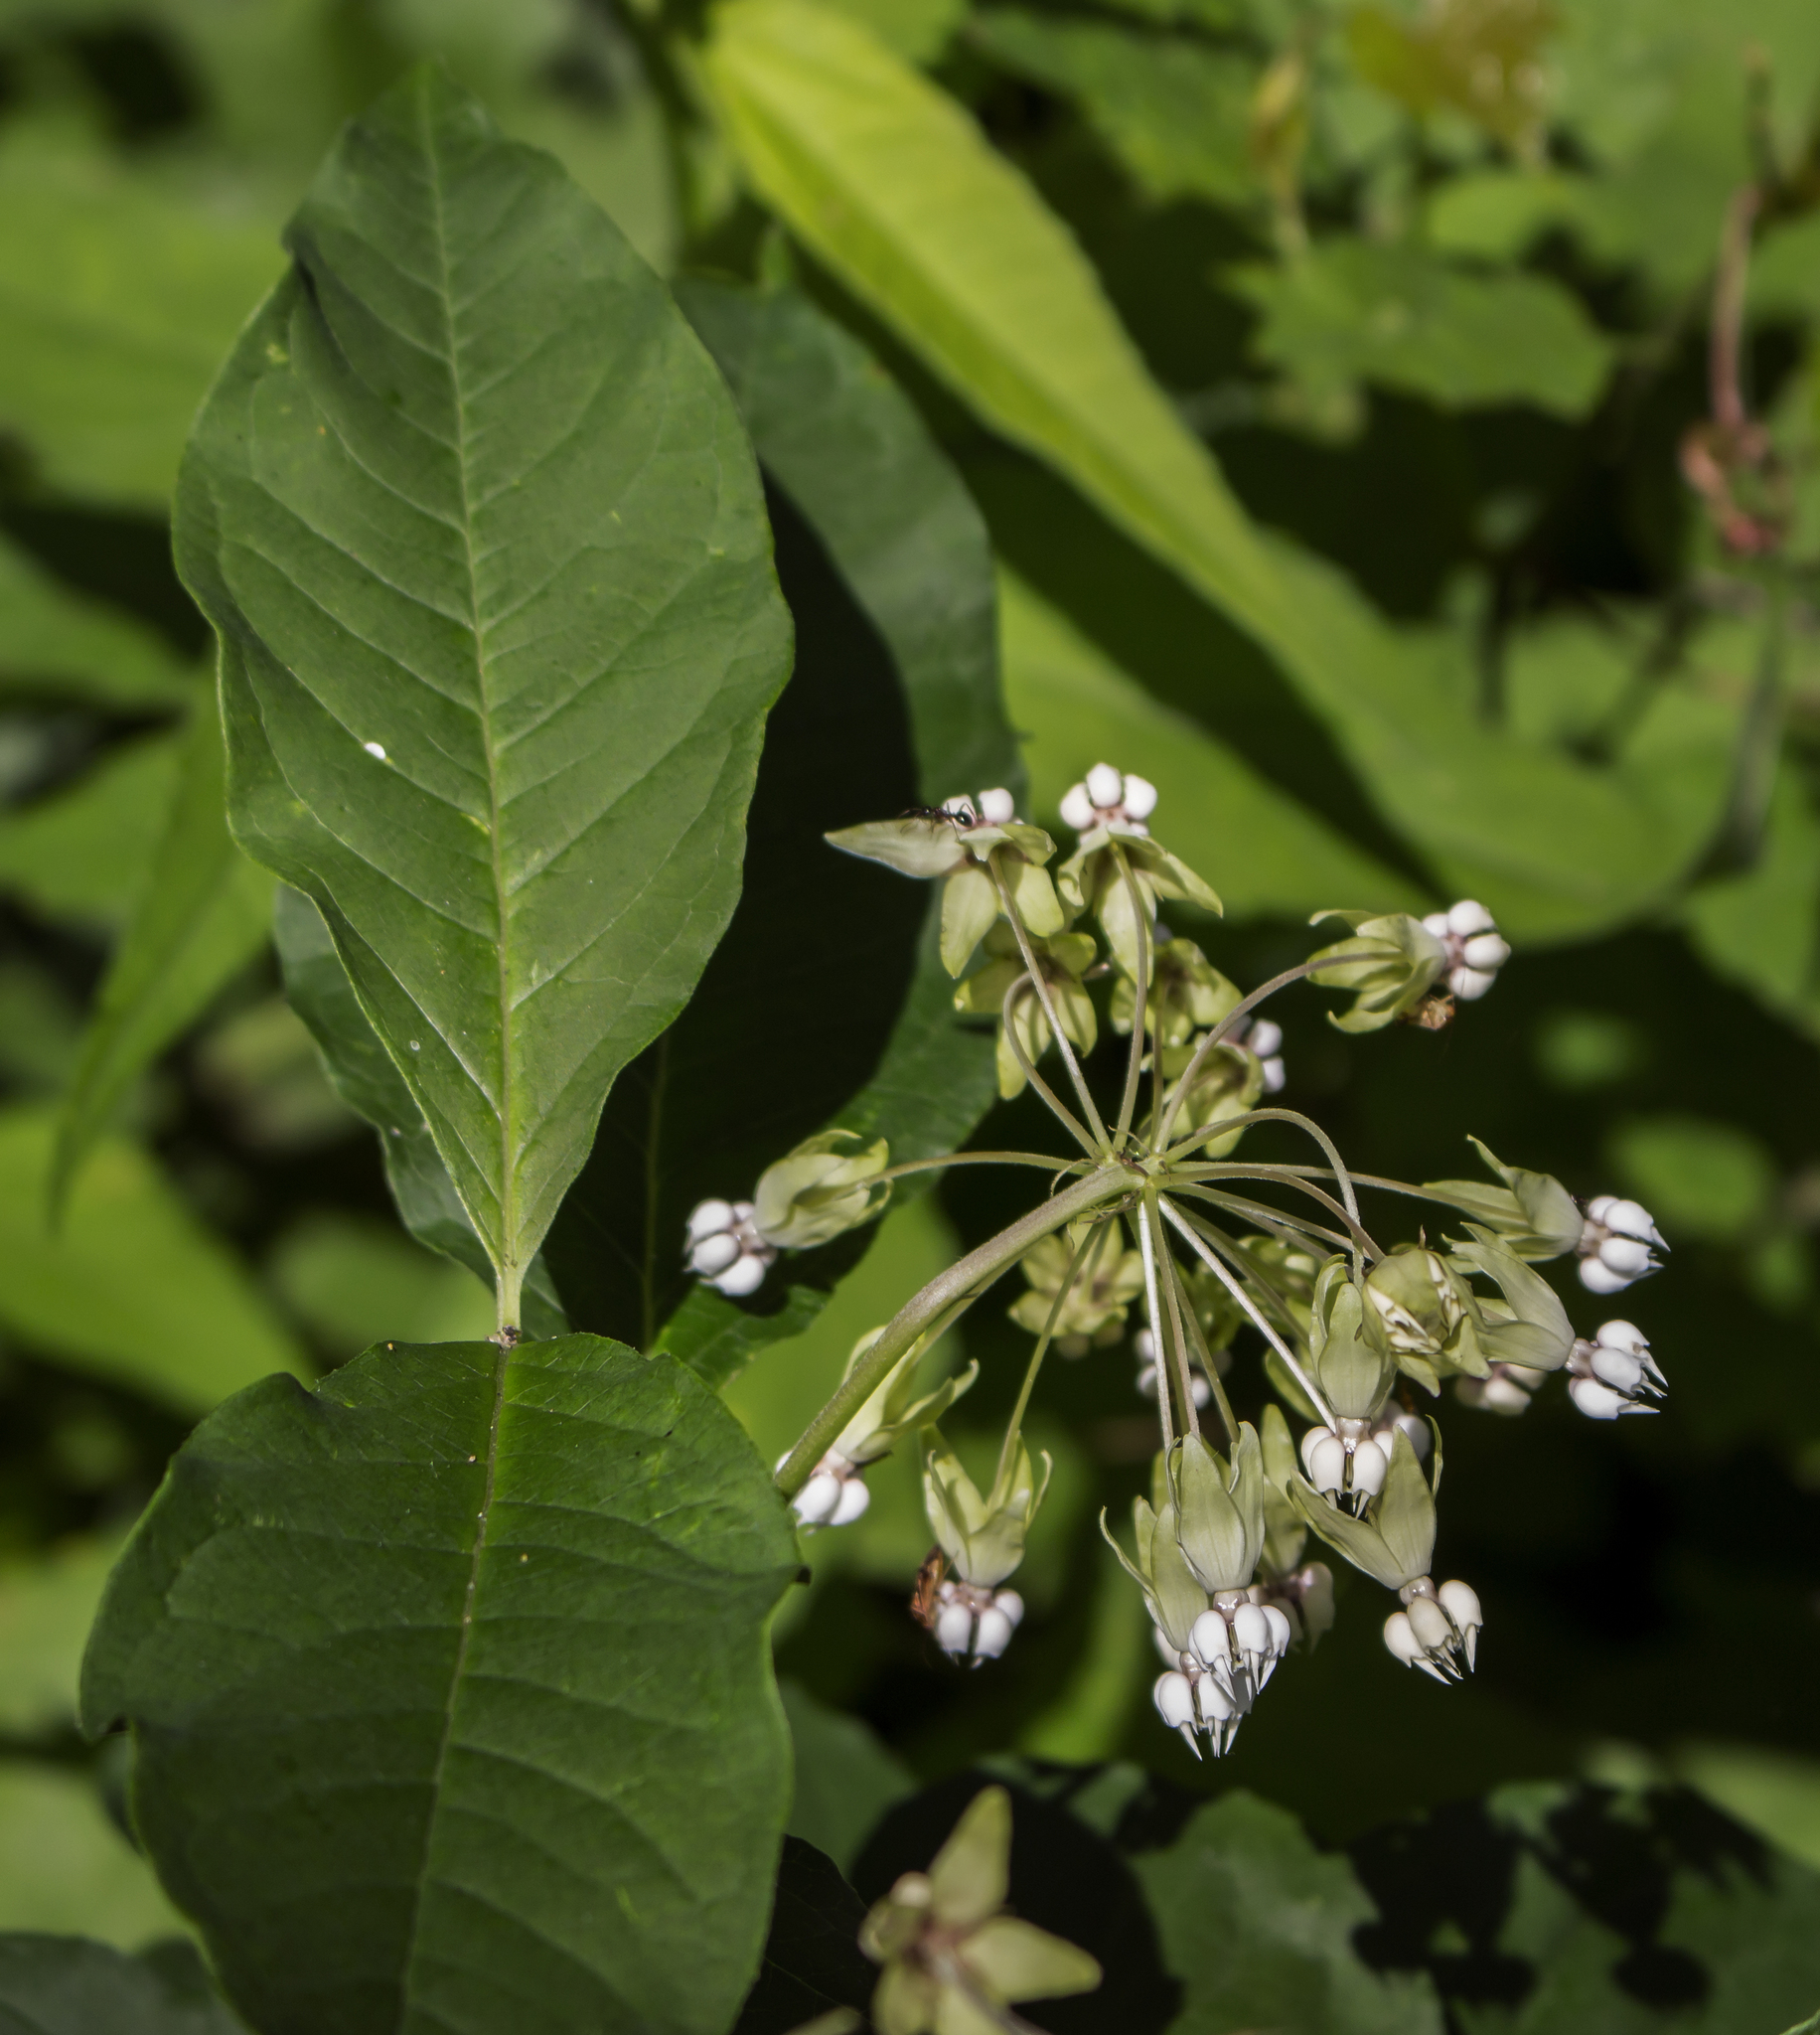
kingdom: Plantae
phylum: Tracheophyta
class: Magnoliopsida
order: Gentianales
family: Apocynaceae
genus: Asclepias
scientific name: Asclepias exaltata
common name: Poke milkweed
